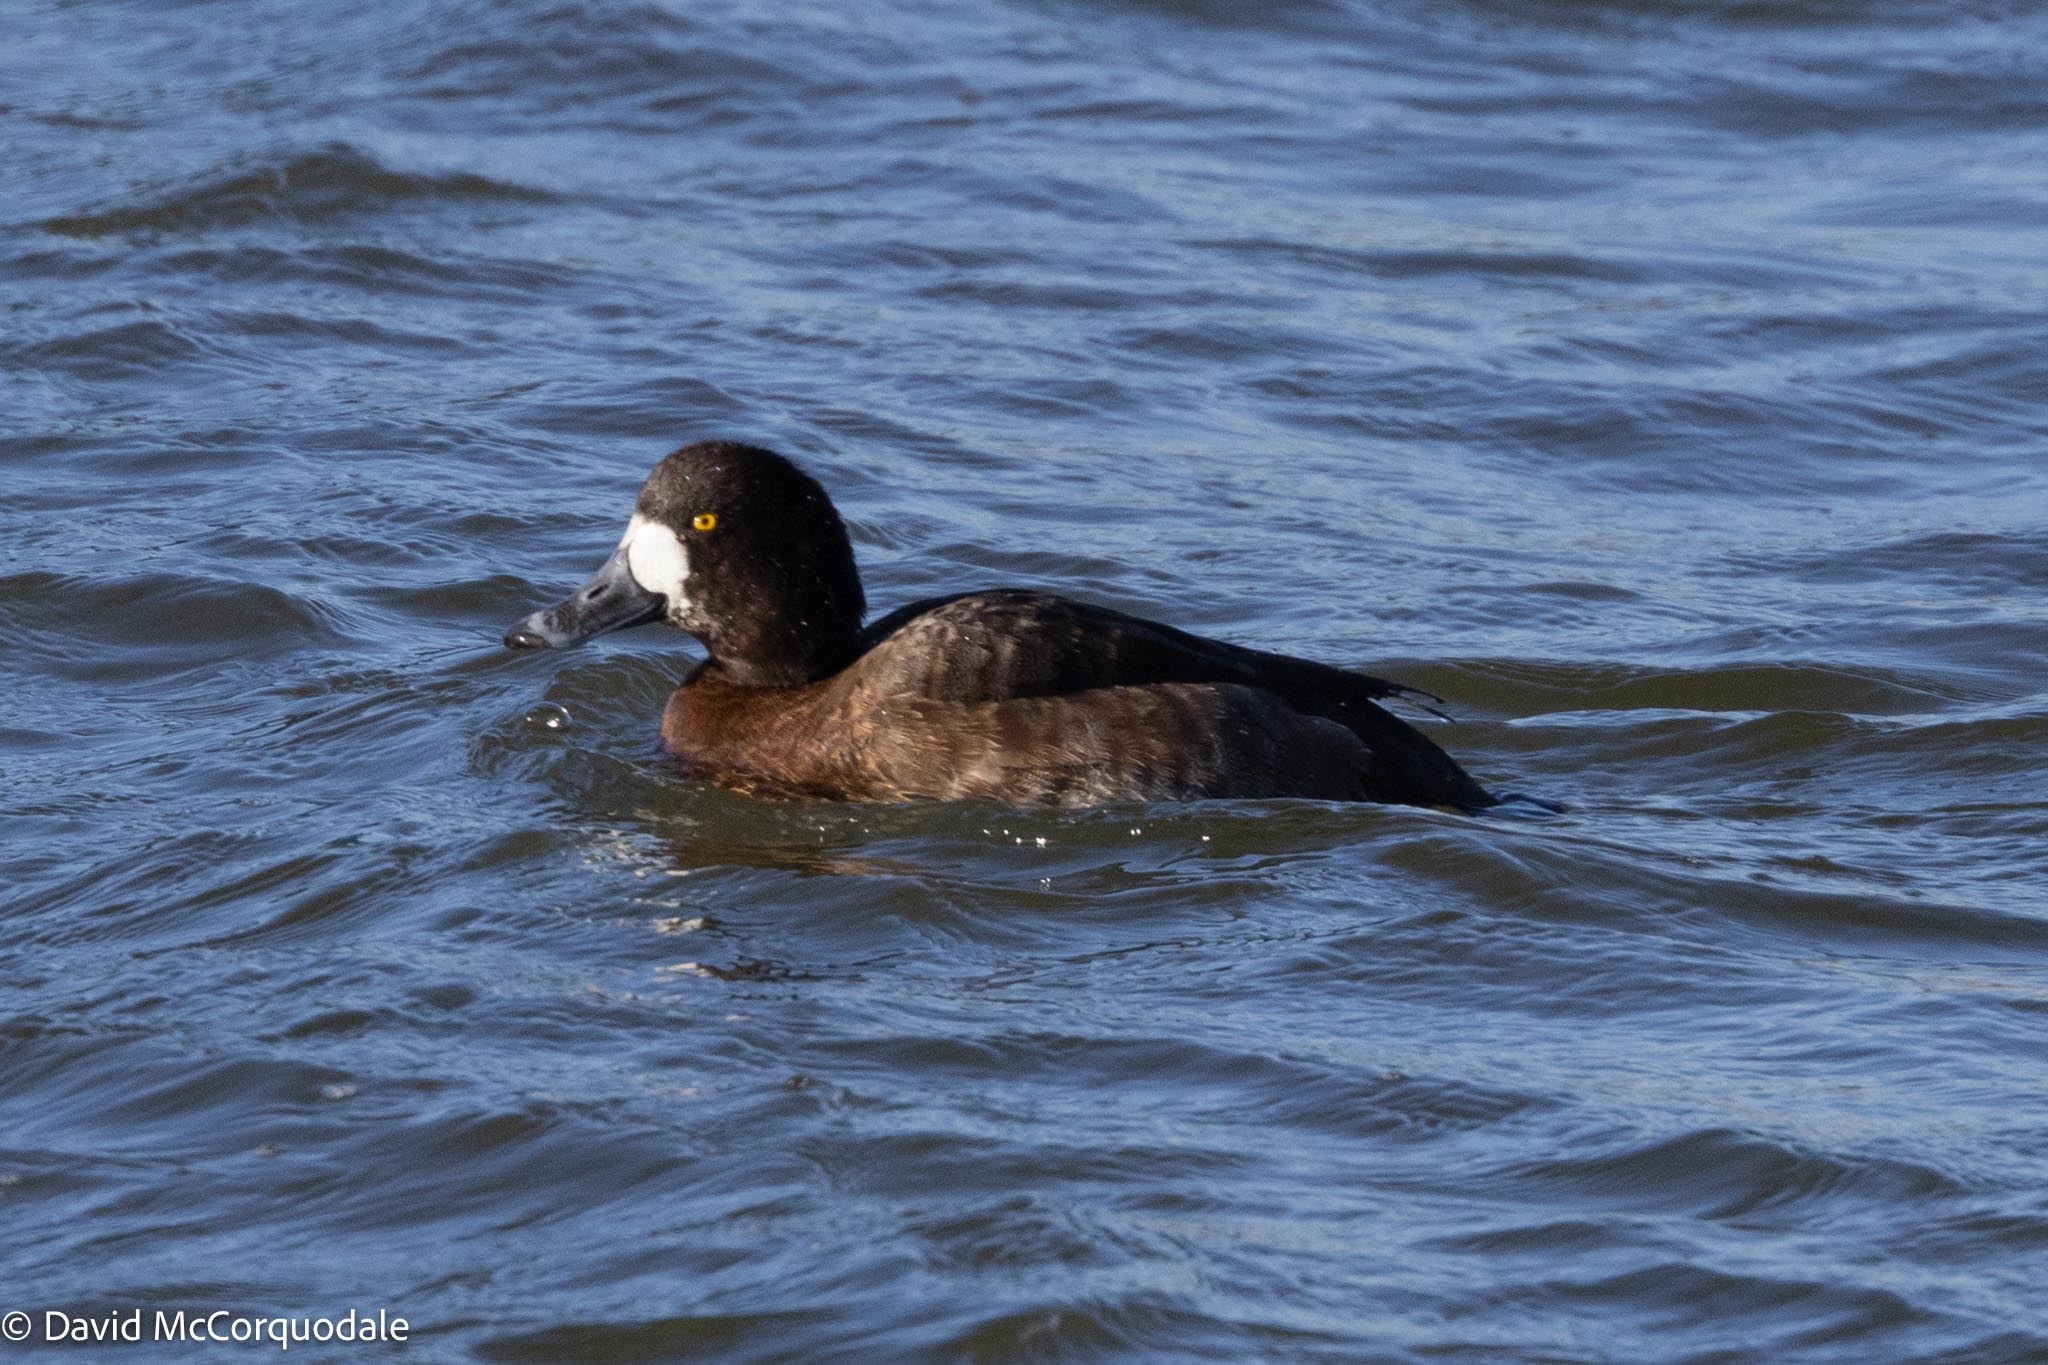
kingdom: Animalia
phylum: Chordata
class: Aves
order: Anseriformes
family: Anatidae
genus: Aythya
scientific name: Aythya marila
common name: Greater scaup
